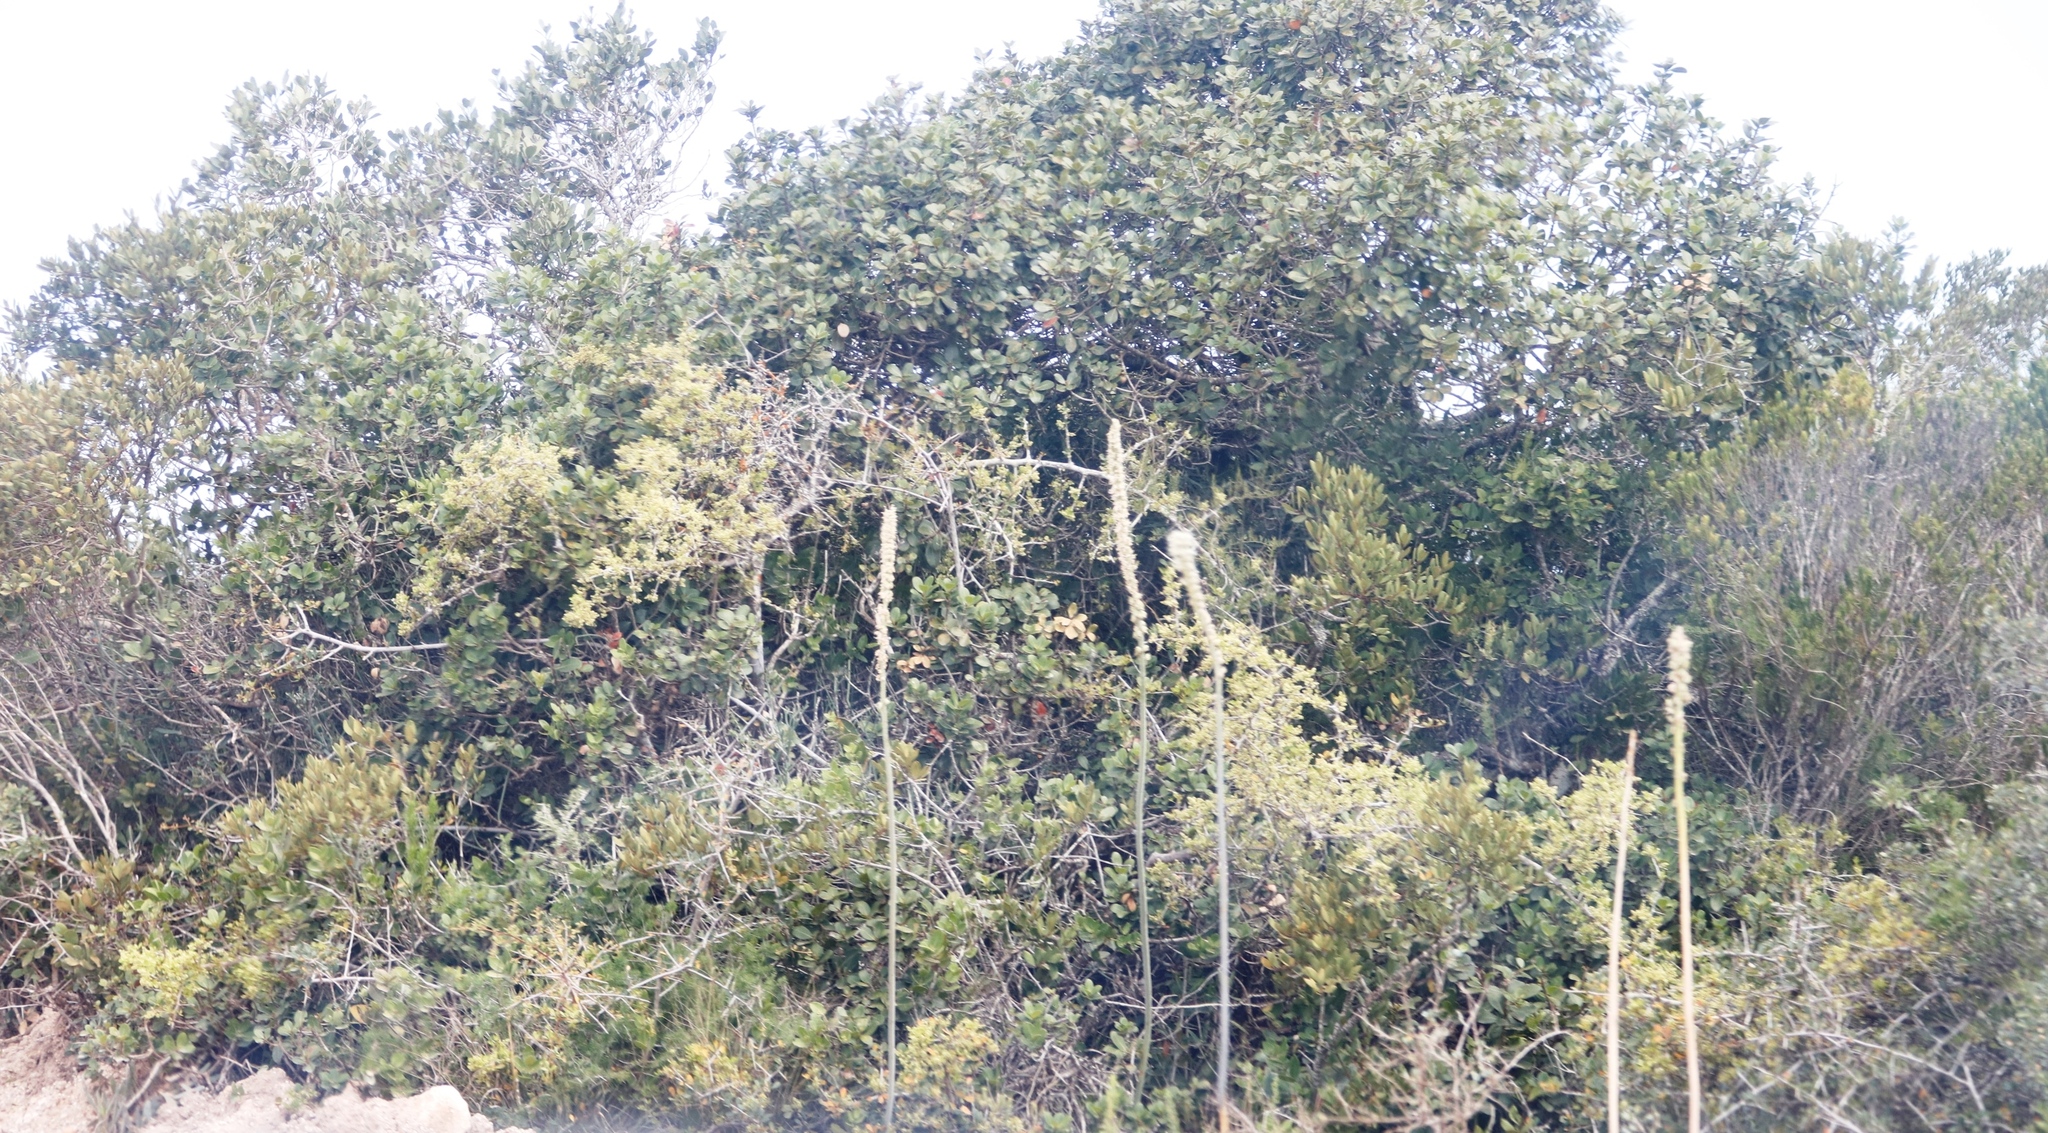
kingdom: Plantae
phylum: Tracheophyta
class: Liliopsida
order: Asparagales
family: Asparagaceae
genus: Drimia
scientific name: Drimia capensis
